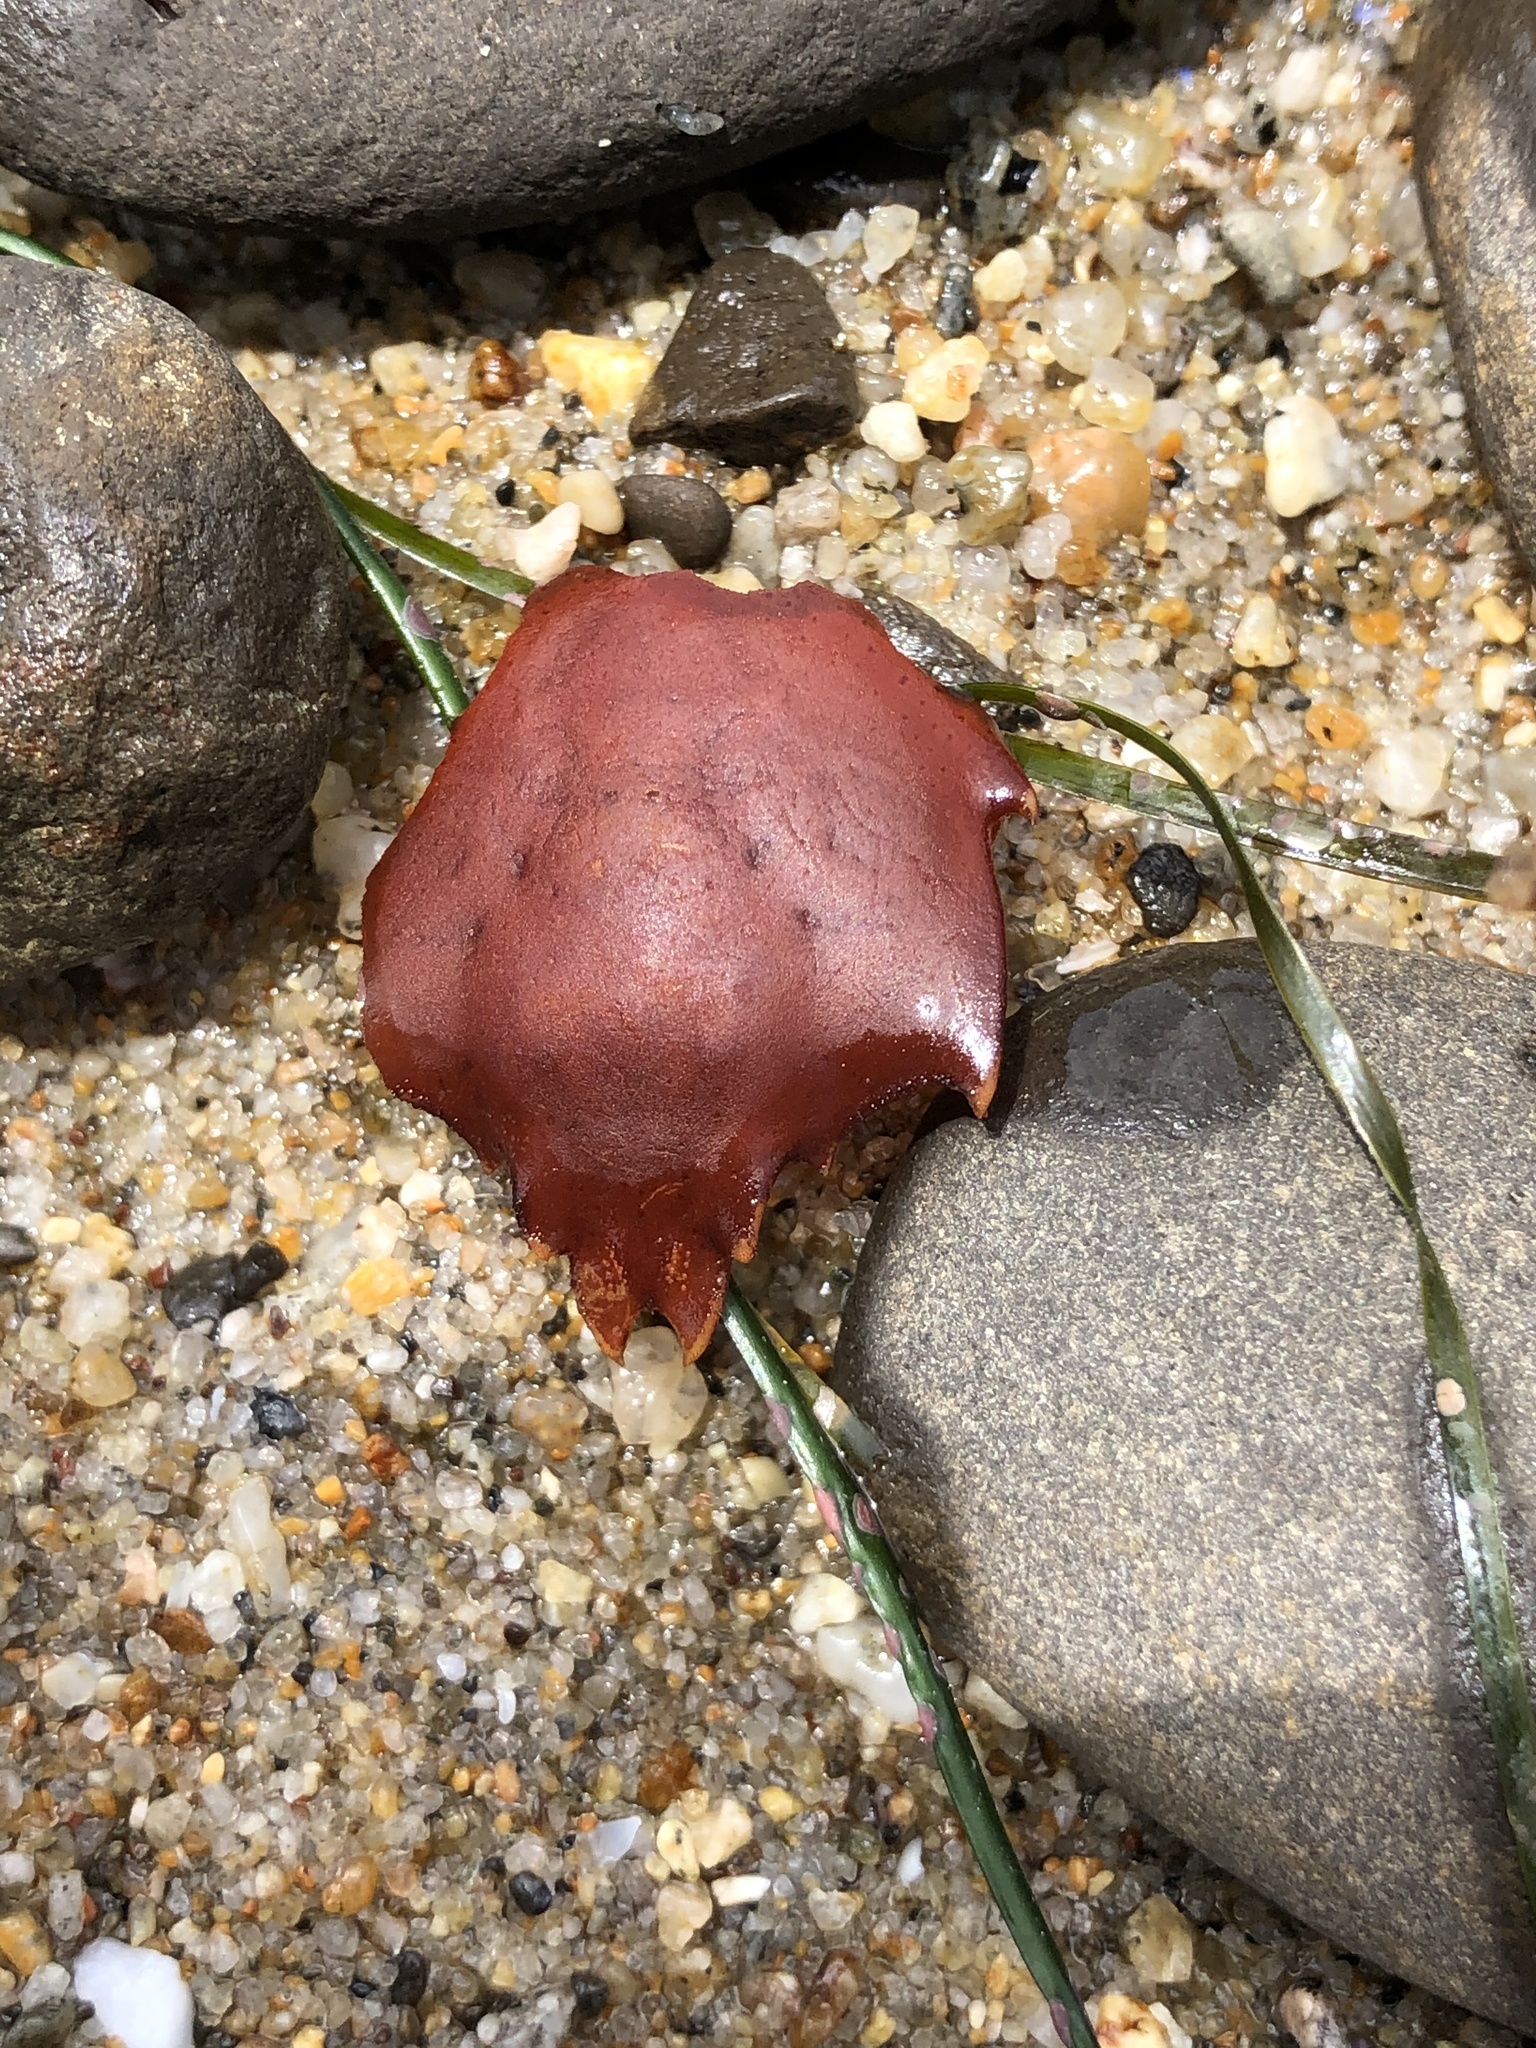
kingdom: Animalia
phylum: Arthropoda
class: Malacostraca
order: Decapoda
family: Epialtidae
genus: Pugettia
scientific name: Pugettia producta
